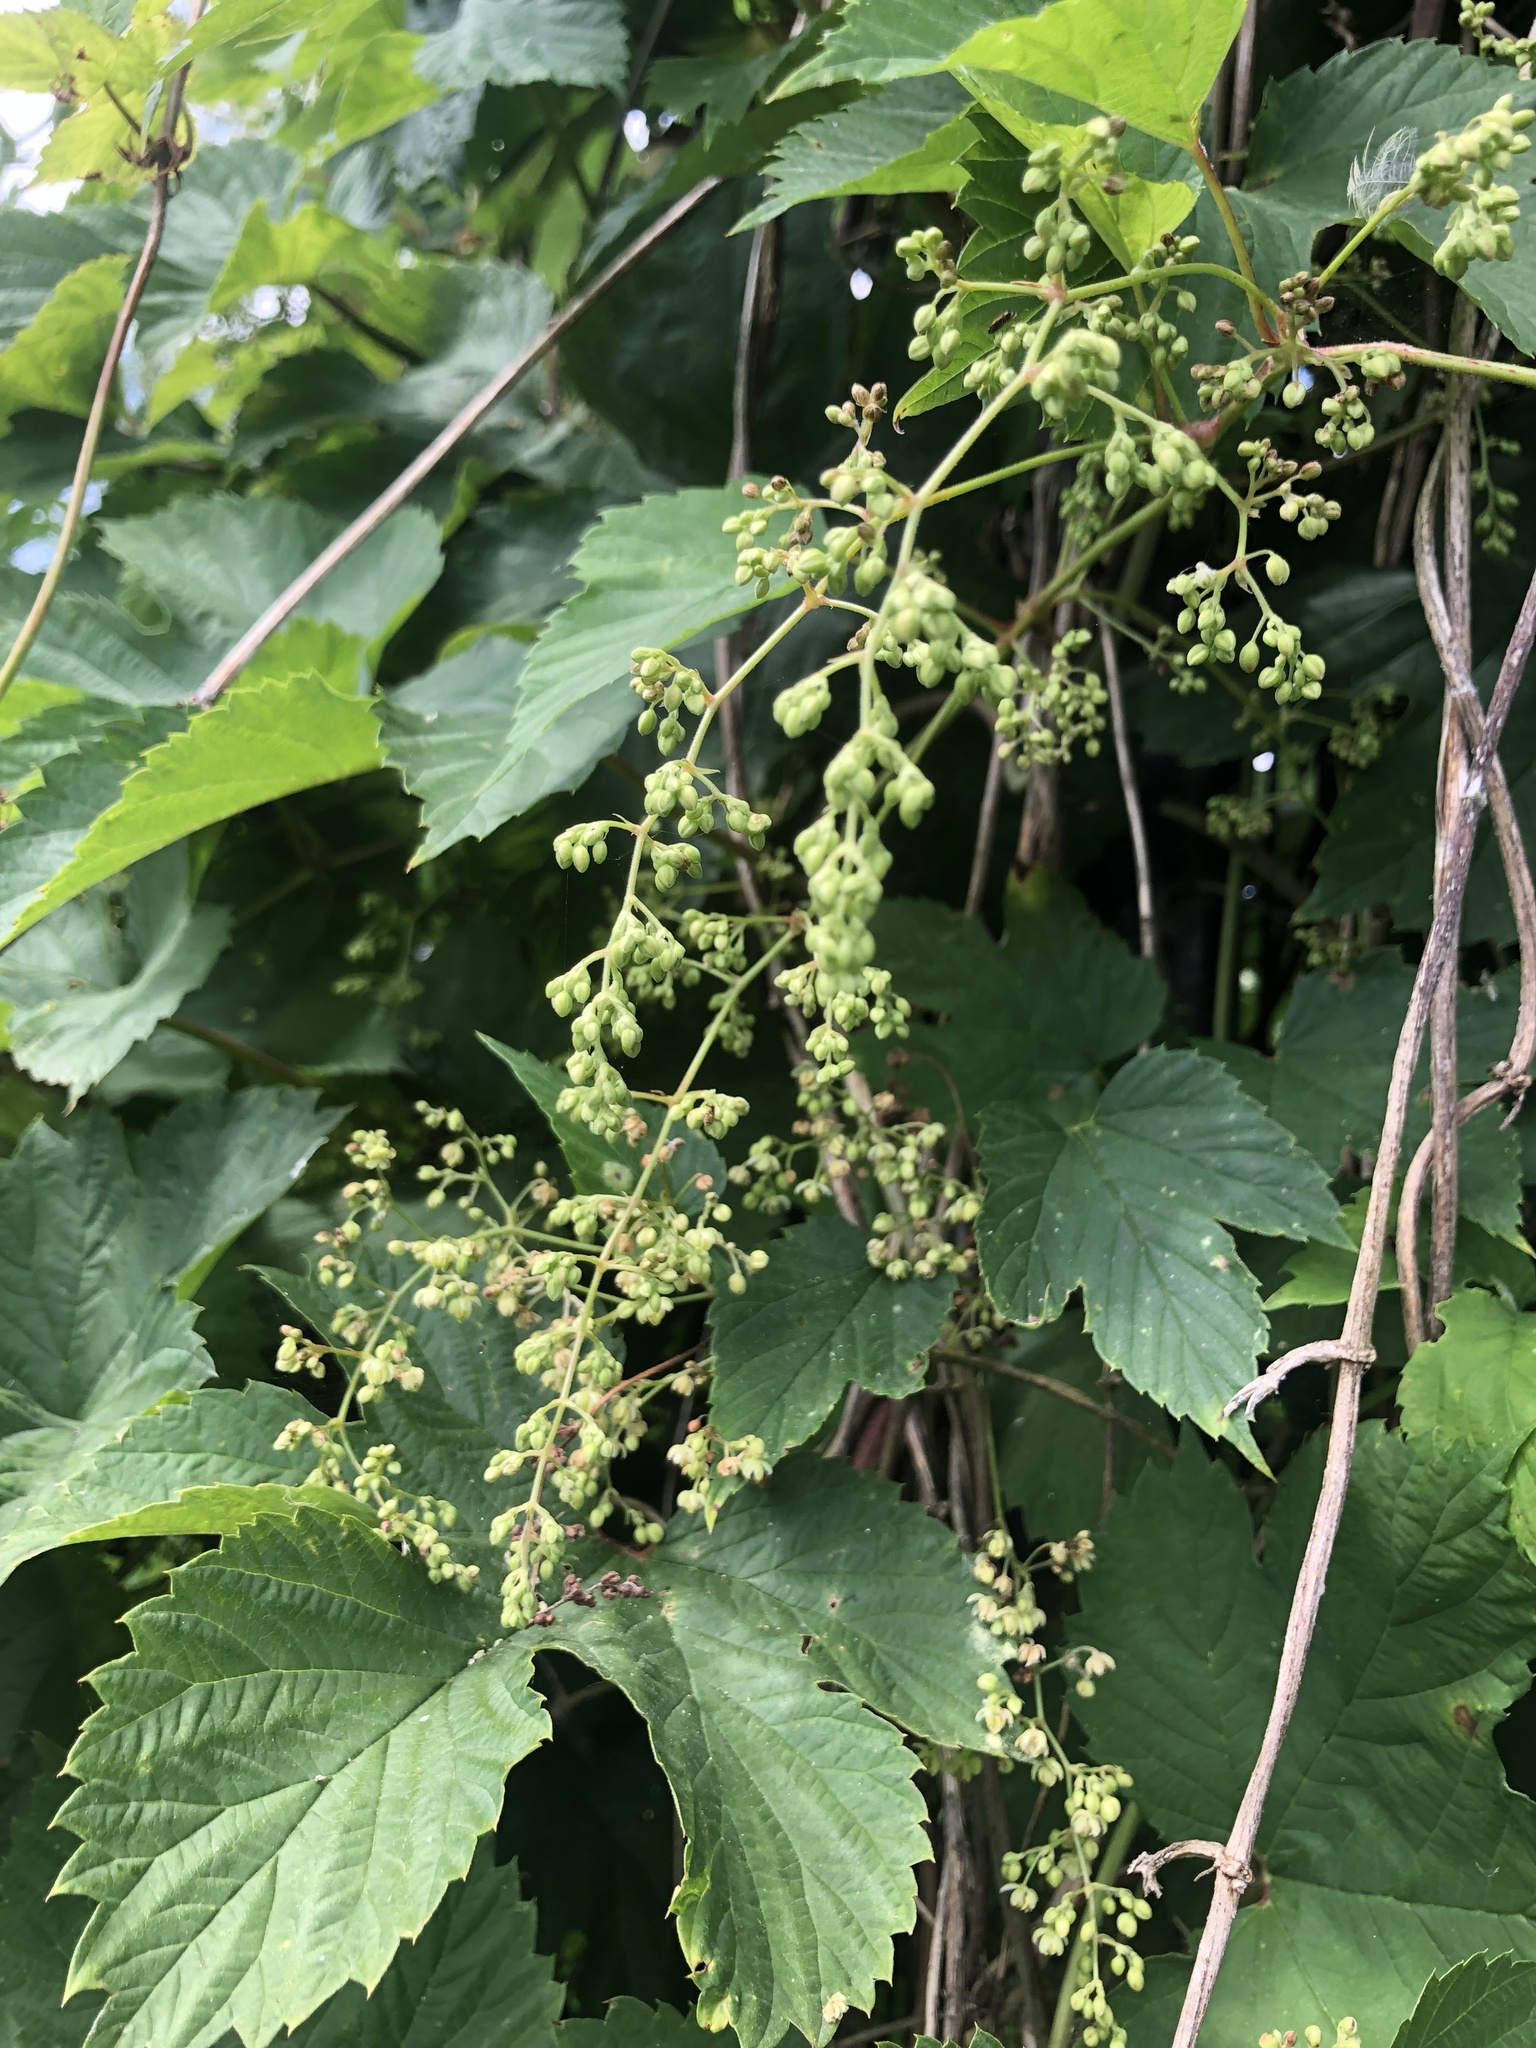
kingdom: Plantae
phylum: Tracheophyta
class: Magnoliopsida
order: Rosales
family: Cannabaceae
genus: Humulus
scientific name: Humulus lupulus
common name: Hop
